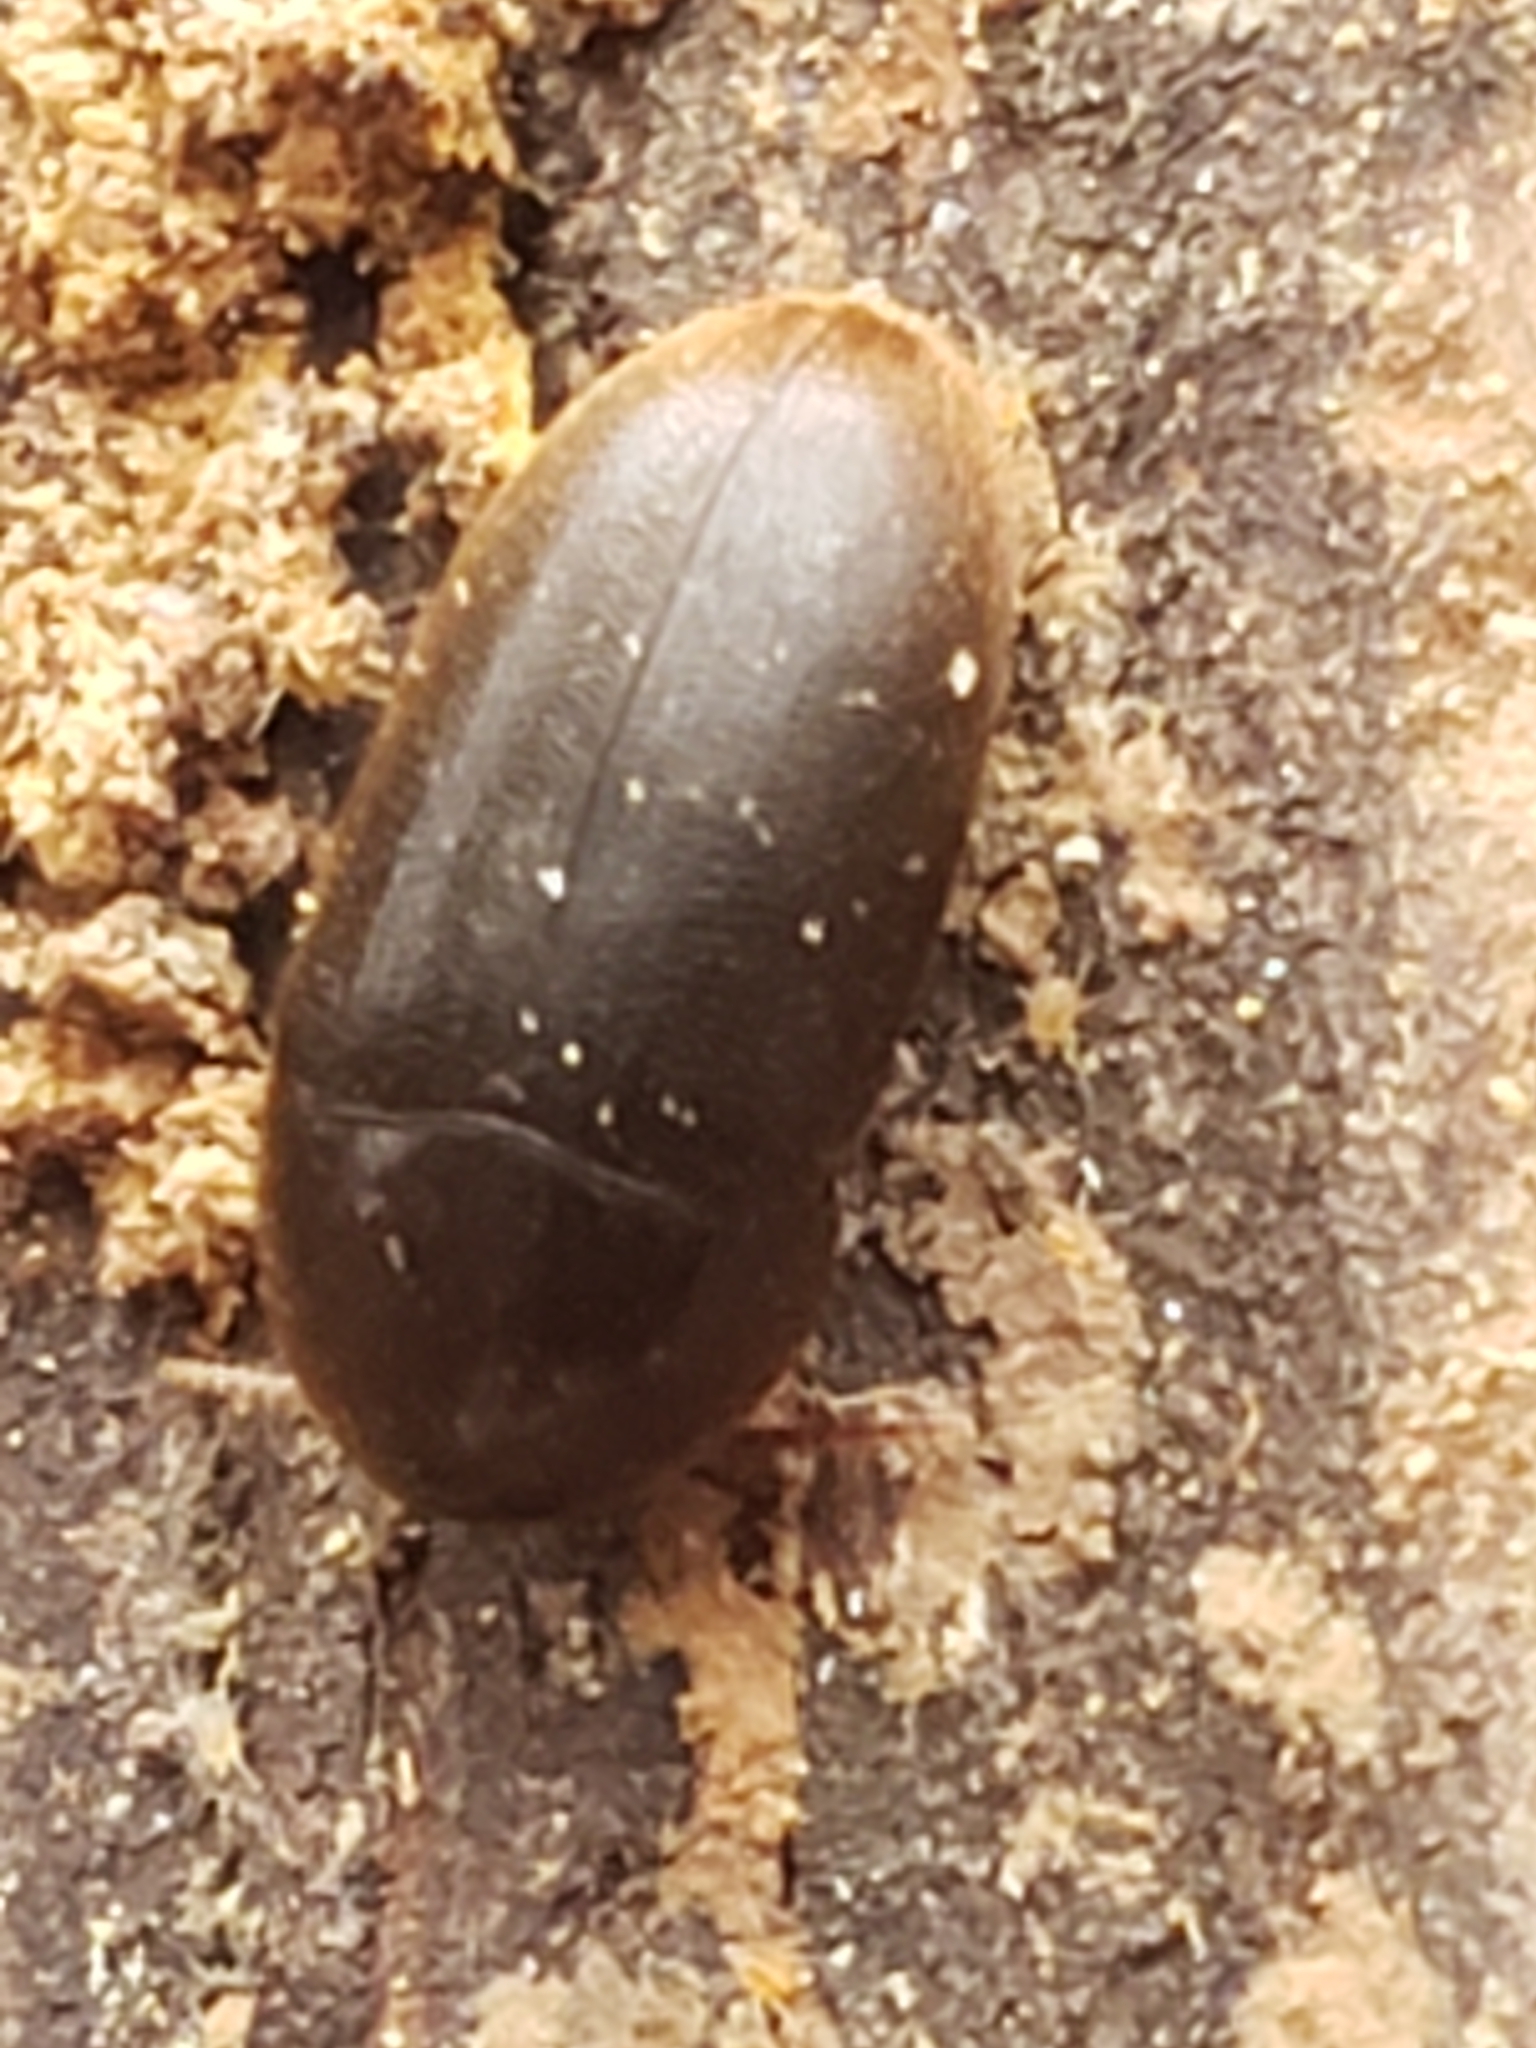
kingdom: Animalia
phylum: Arthropoda
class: Insecta
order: Coleoptera
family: Tetratomidae
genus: Eustrophus
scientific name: Eustrophus tomentosus
